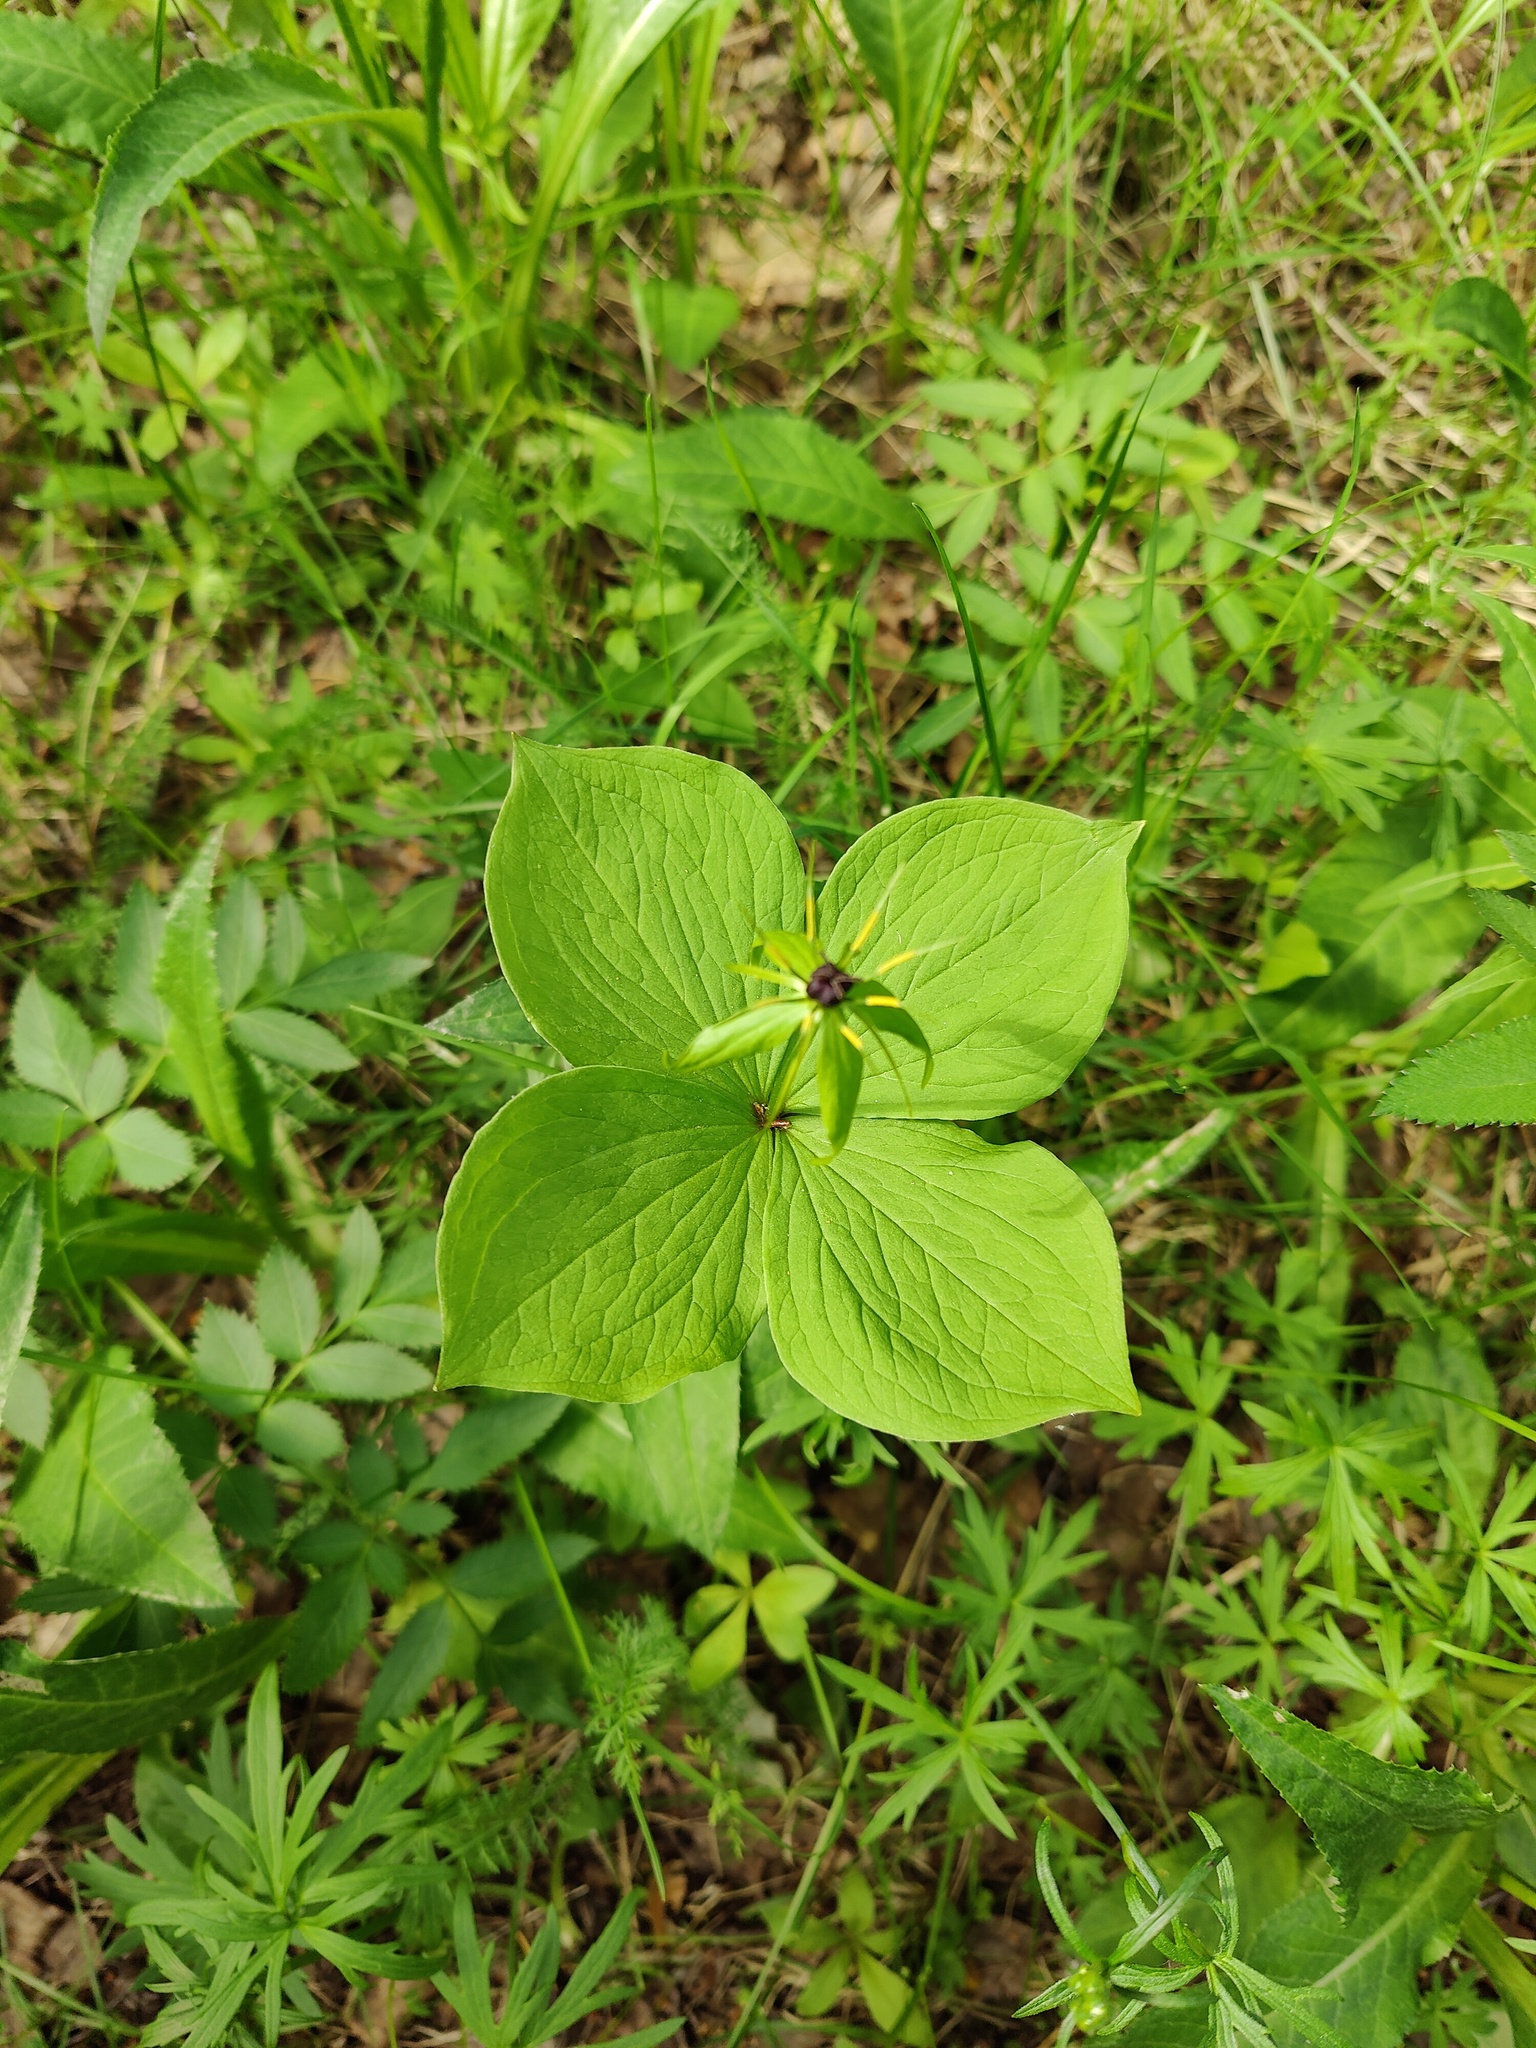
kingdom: Plantae
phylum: Tracheophyta
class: Liliopsida
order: Liliales
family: Melanthiaceae
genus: Paris
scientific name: Paris quadrifolia
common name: Herb-paris
